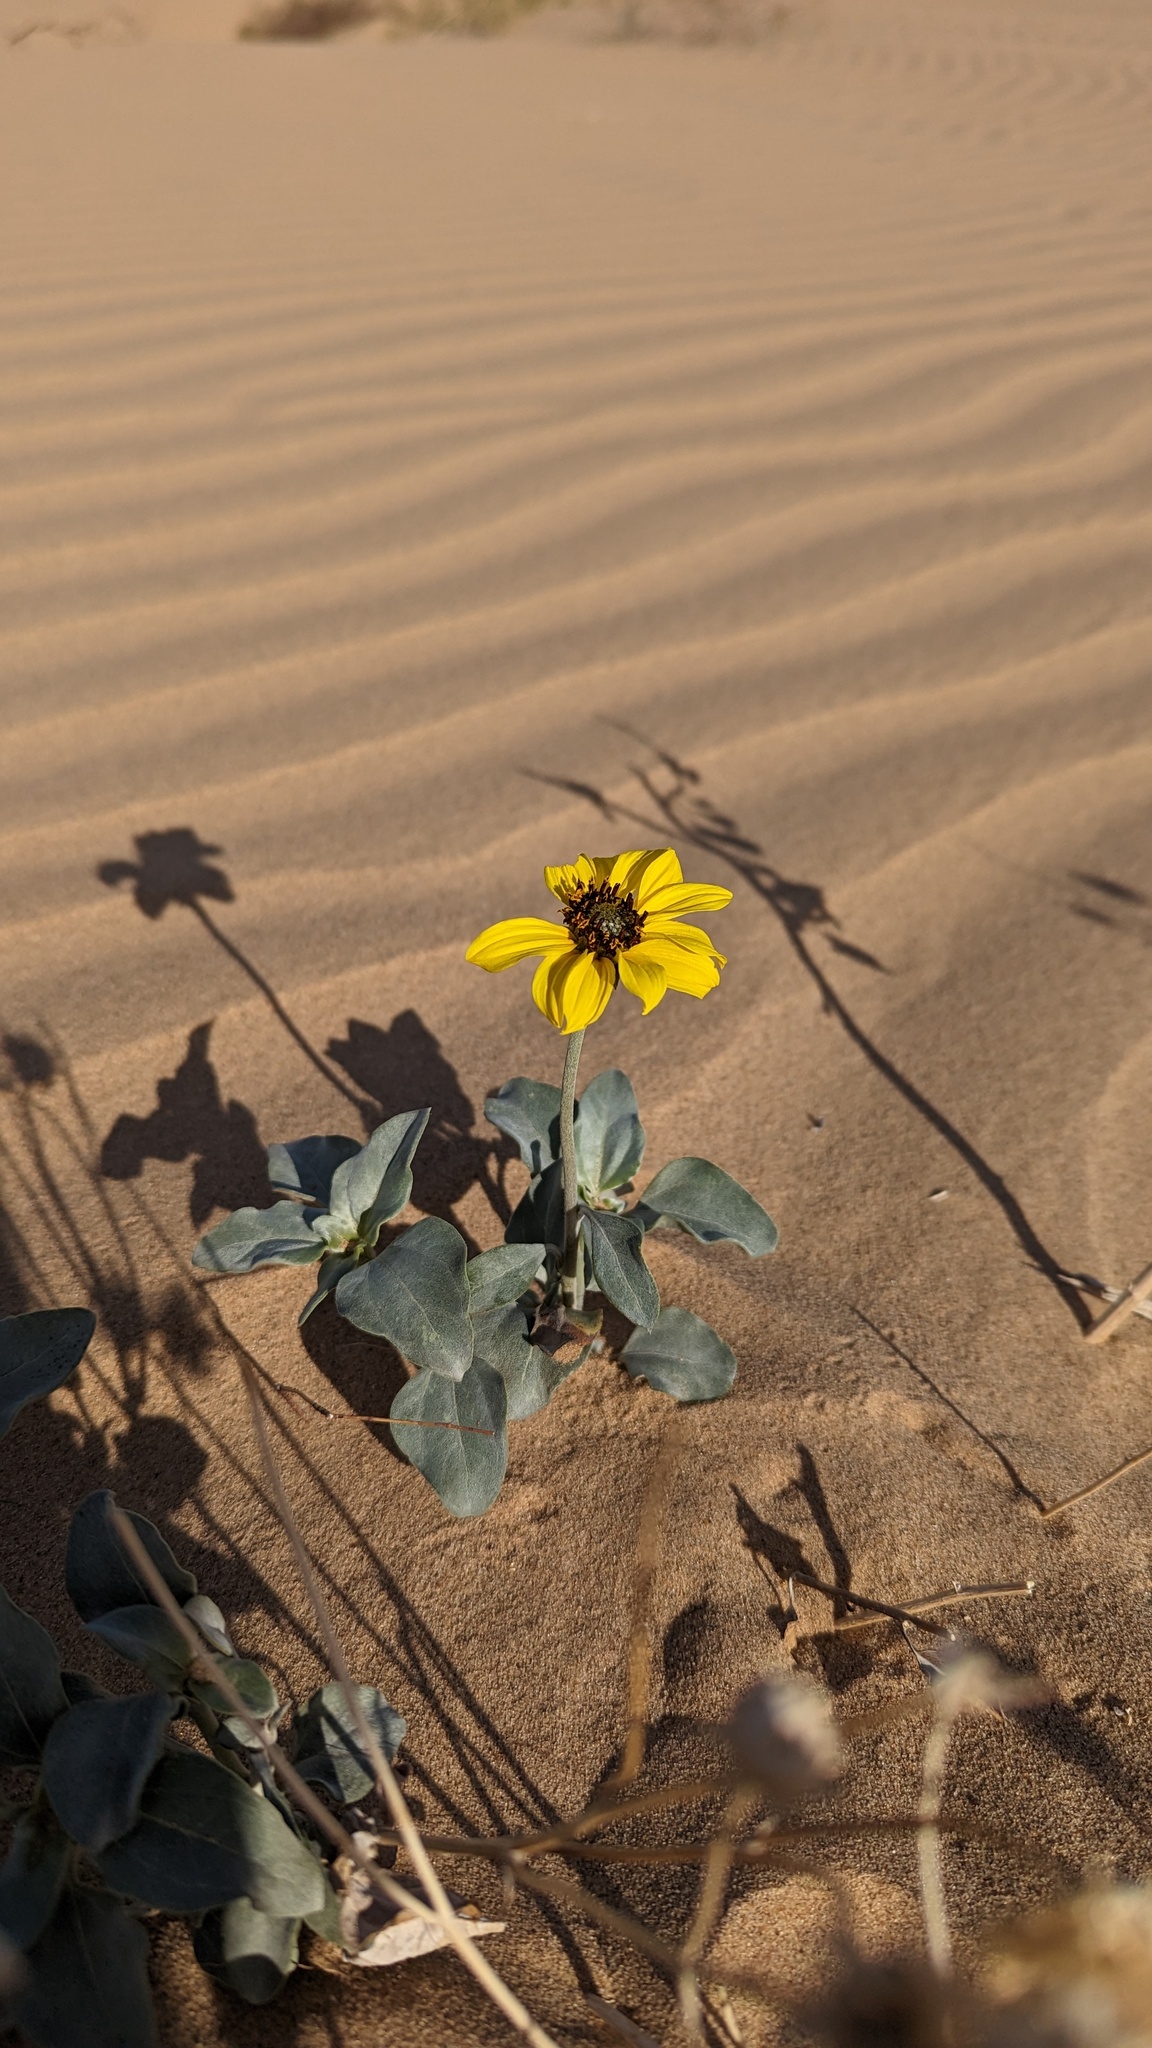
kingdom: Plantae
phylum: Tracheophyta
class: Magnoliopsida
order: Asterales
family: Asteraceae
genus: Helianthus
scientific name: Helianthus niveus
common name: Snowy sunflower
